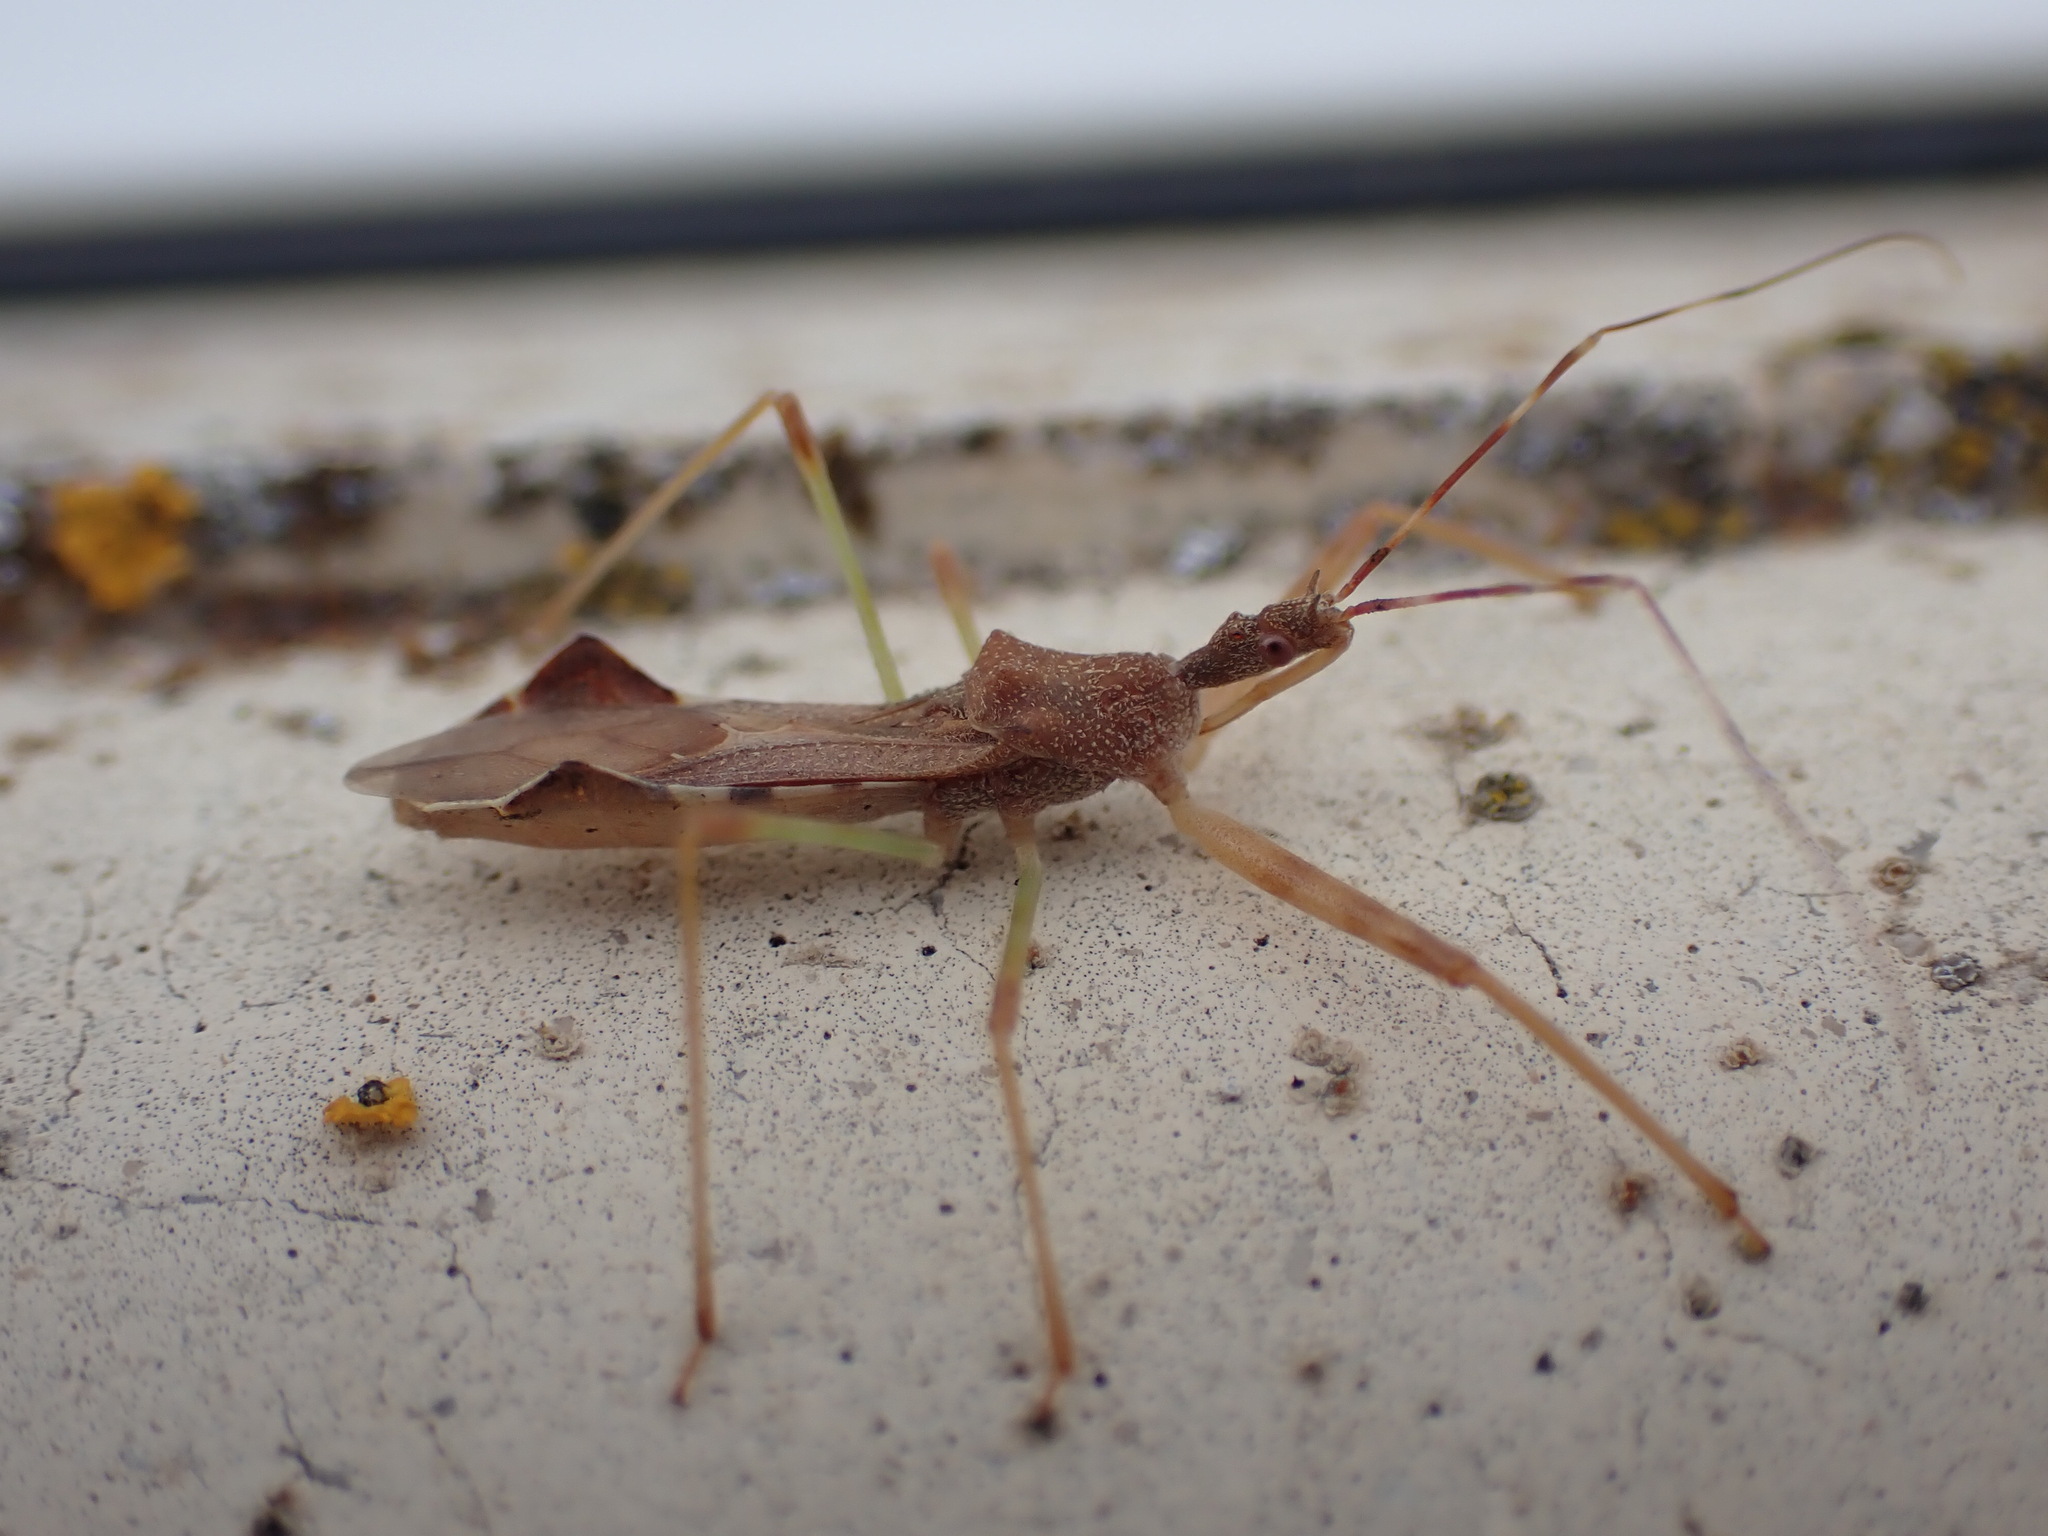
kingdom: Animalia
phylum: Arthropoda
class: Insecta
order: Hemiptera
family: Reduviidae
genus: Nagusta
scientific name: Nagusta goedelii
